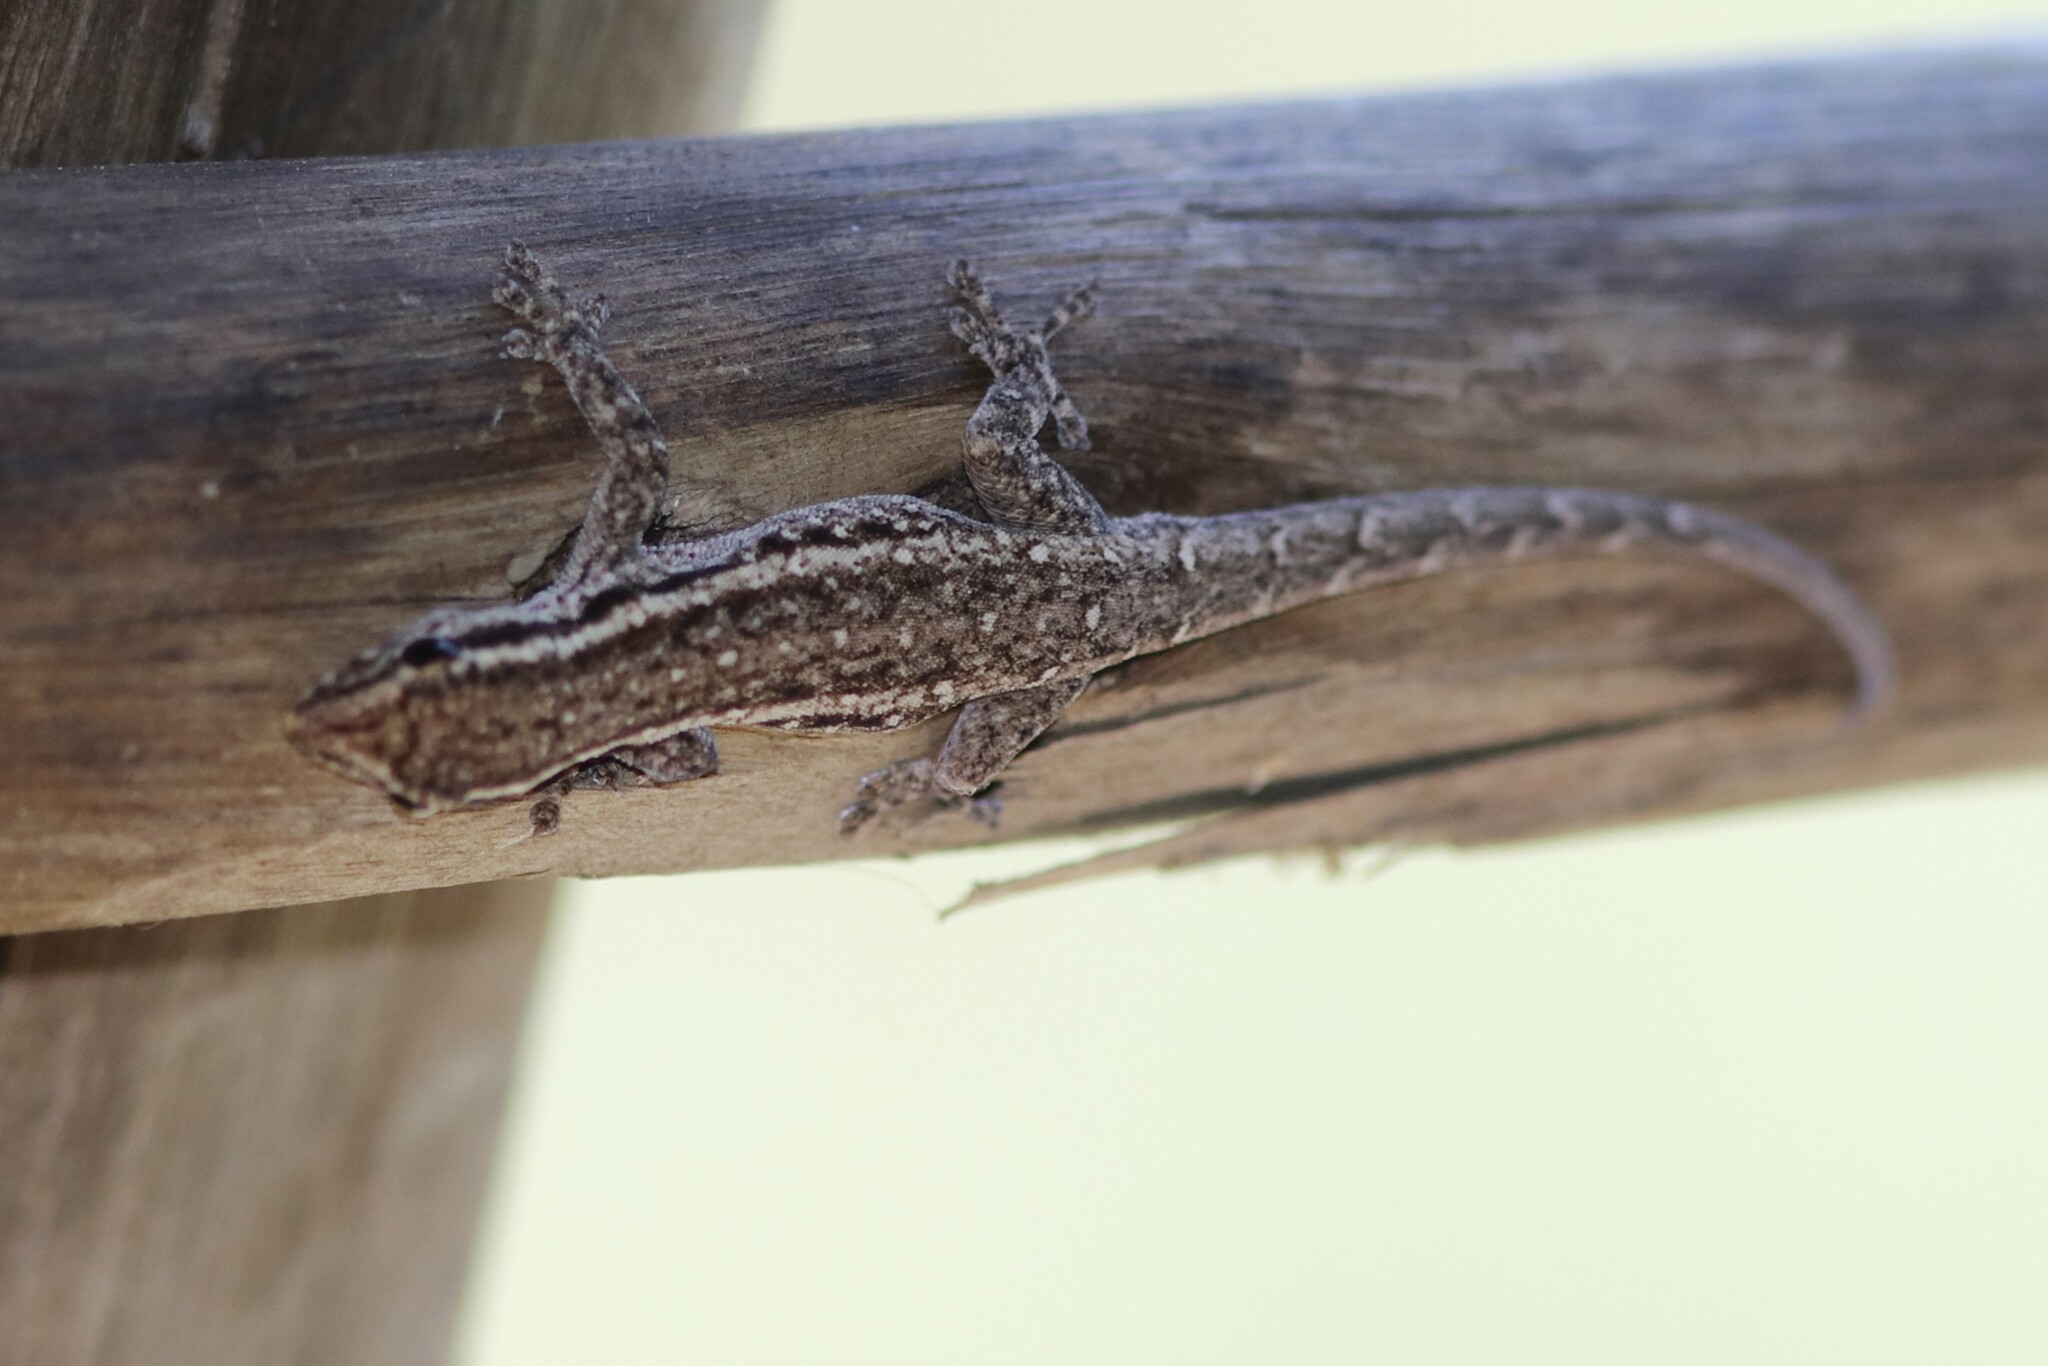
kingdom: Animalia
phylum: Chordata
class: Squamata
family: Gekkonidae
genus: Lygodactylus
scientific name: Lygodactylus capensis
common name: Cape dwarf gecko
